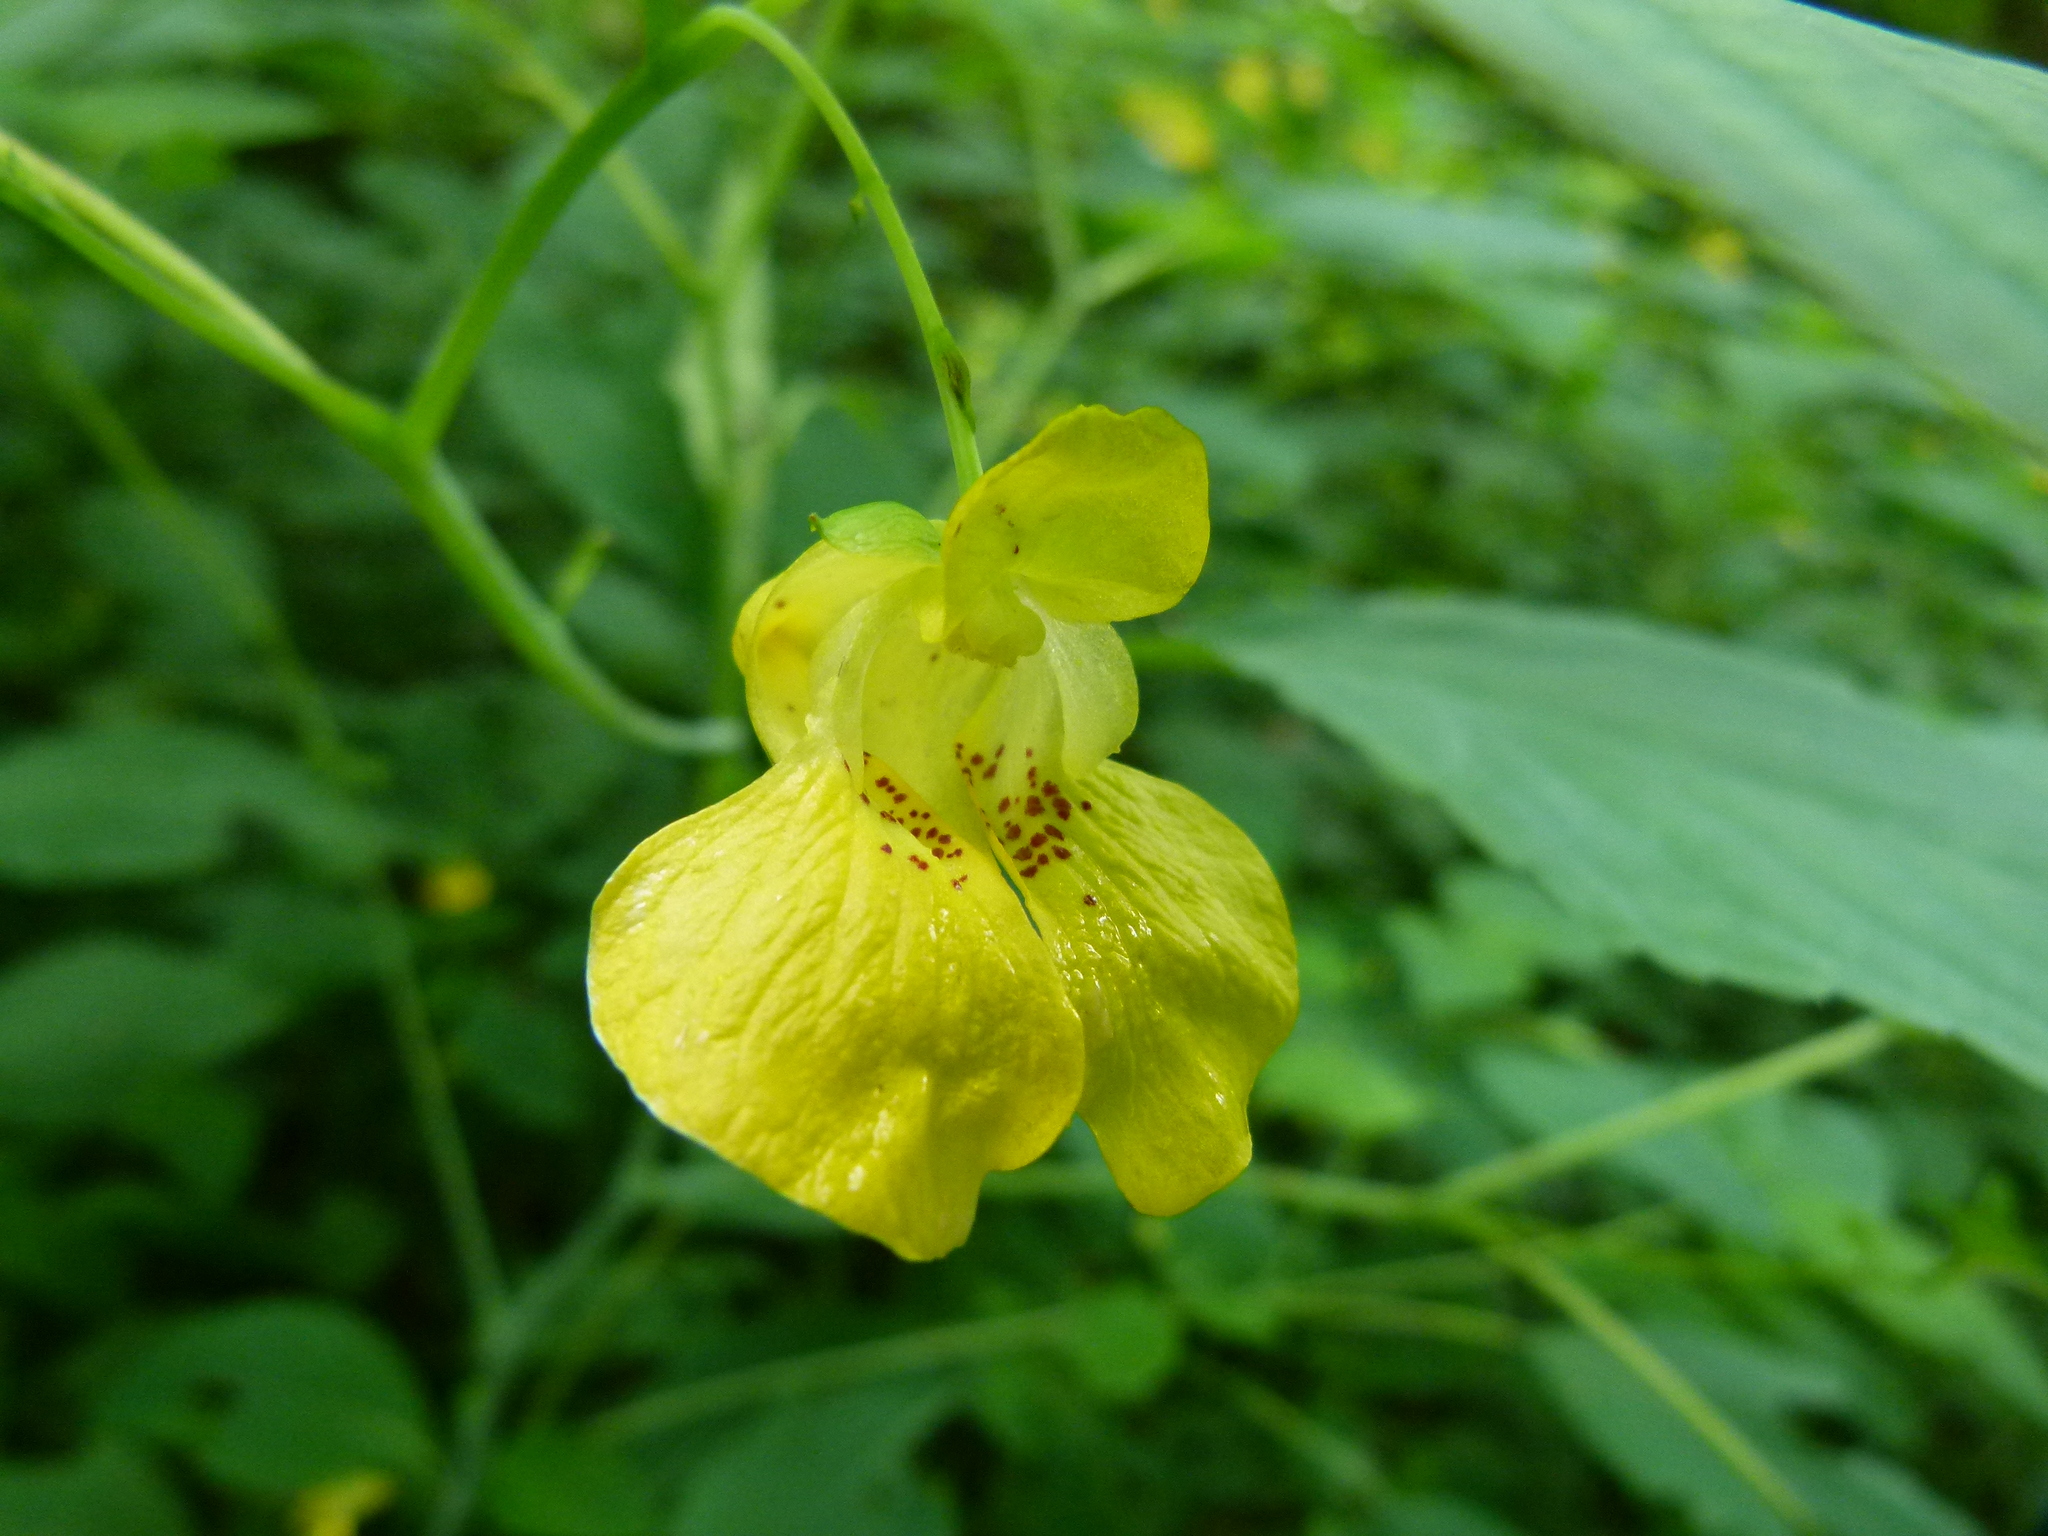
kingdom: Plantae
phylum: Tracheophyta
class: Magnoliopsida
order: Ericales
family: Balsaminaceae
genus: Impatiens
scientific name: Impatiens pallida
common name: Pale snapweed
